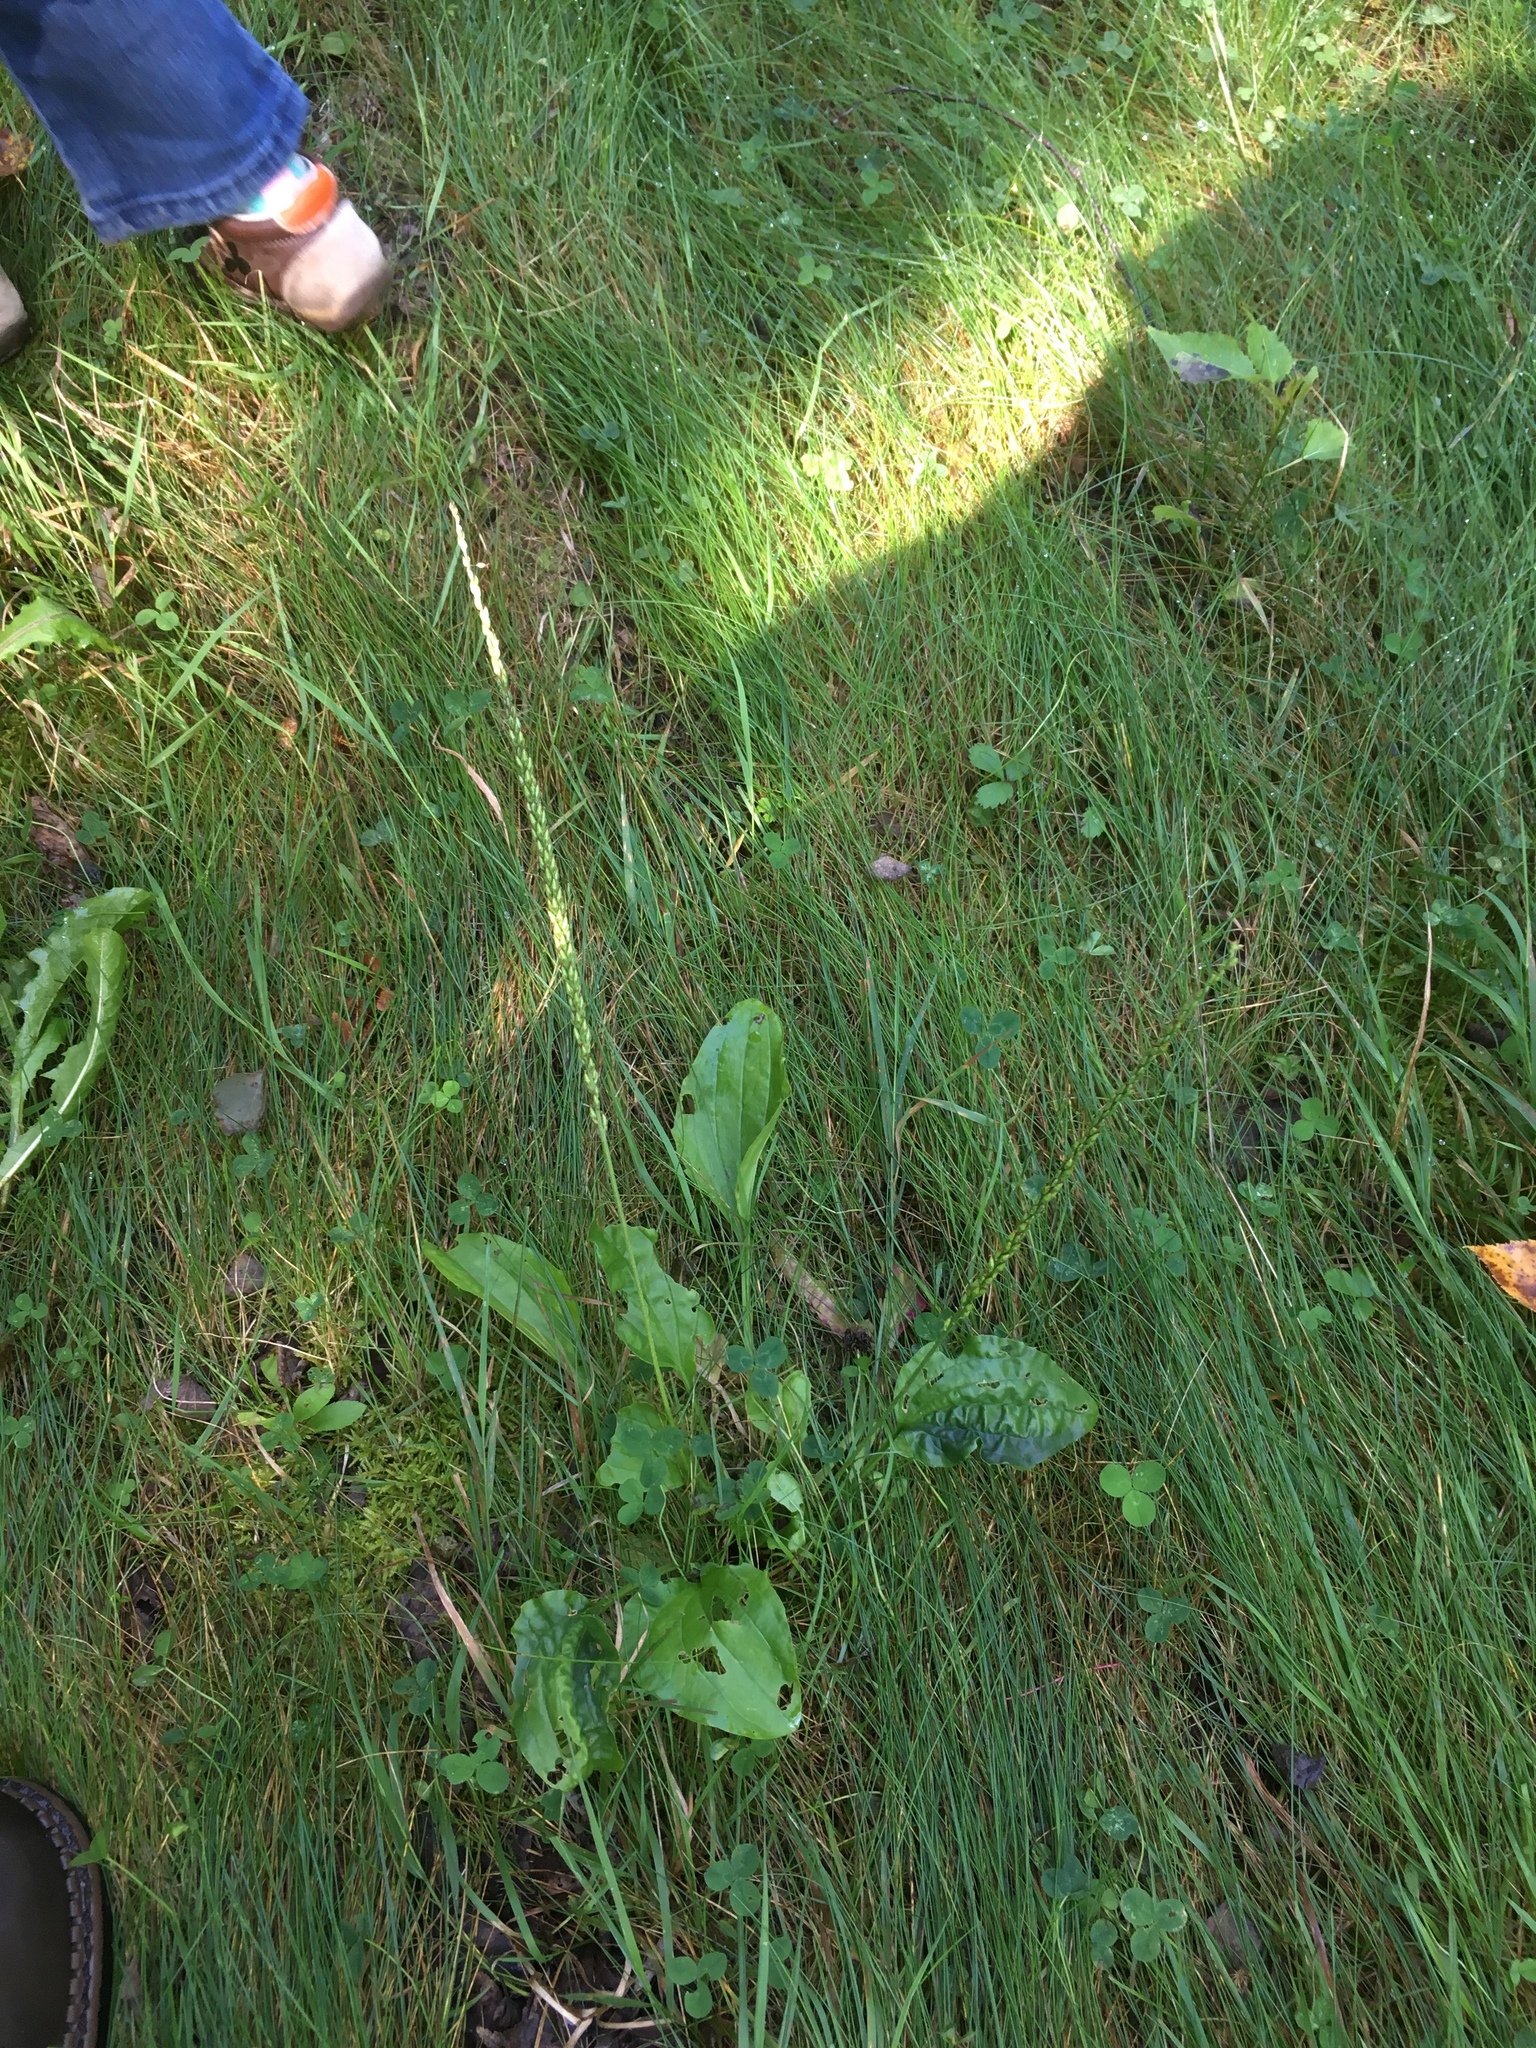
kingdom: Plantae
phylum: Tracheophyta
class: Magnoliopsida
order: Lamiales
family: Plantaginaceae
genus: Plantago
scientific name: Plantago major
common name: Common plantain
